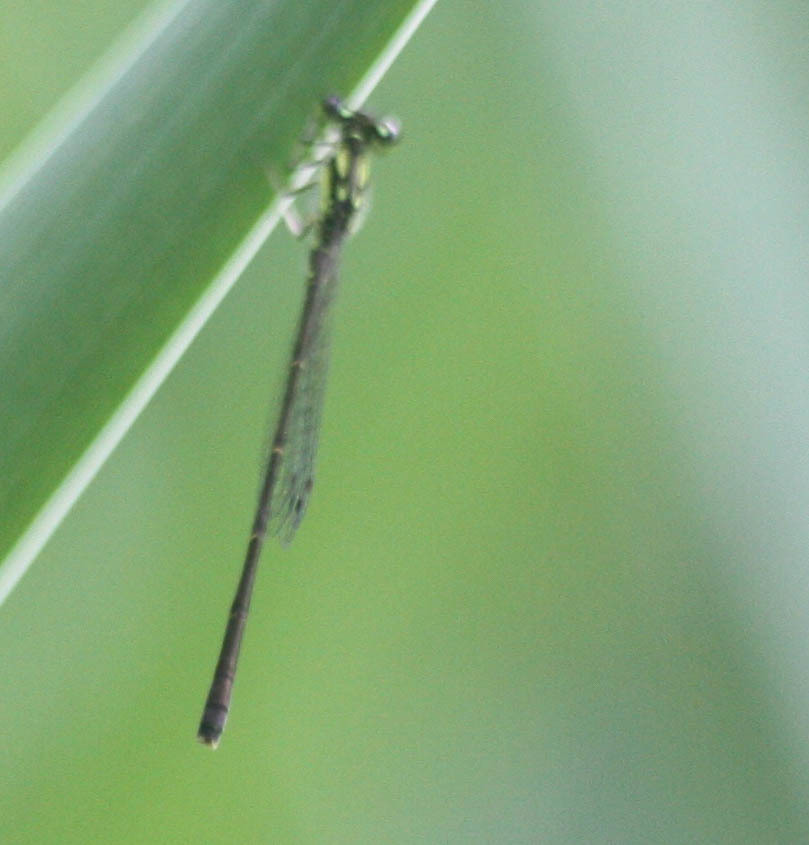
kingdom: Animalia
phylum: Arthropoda
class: Insecta
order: Odonata
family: Coenagrionidae
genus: Ischnura
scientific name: Ischnura posita
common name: Fragile forktail
